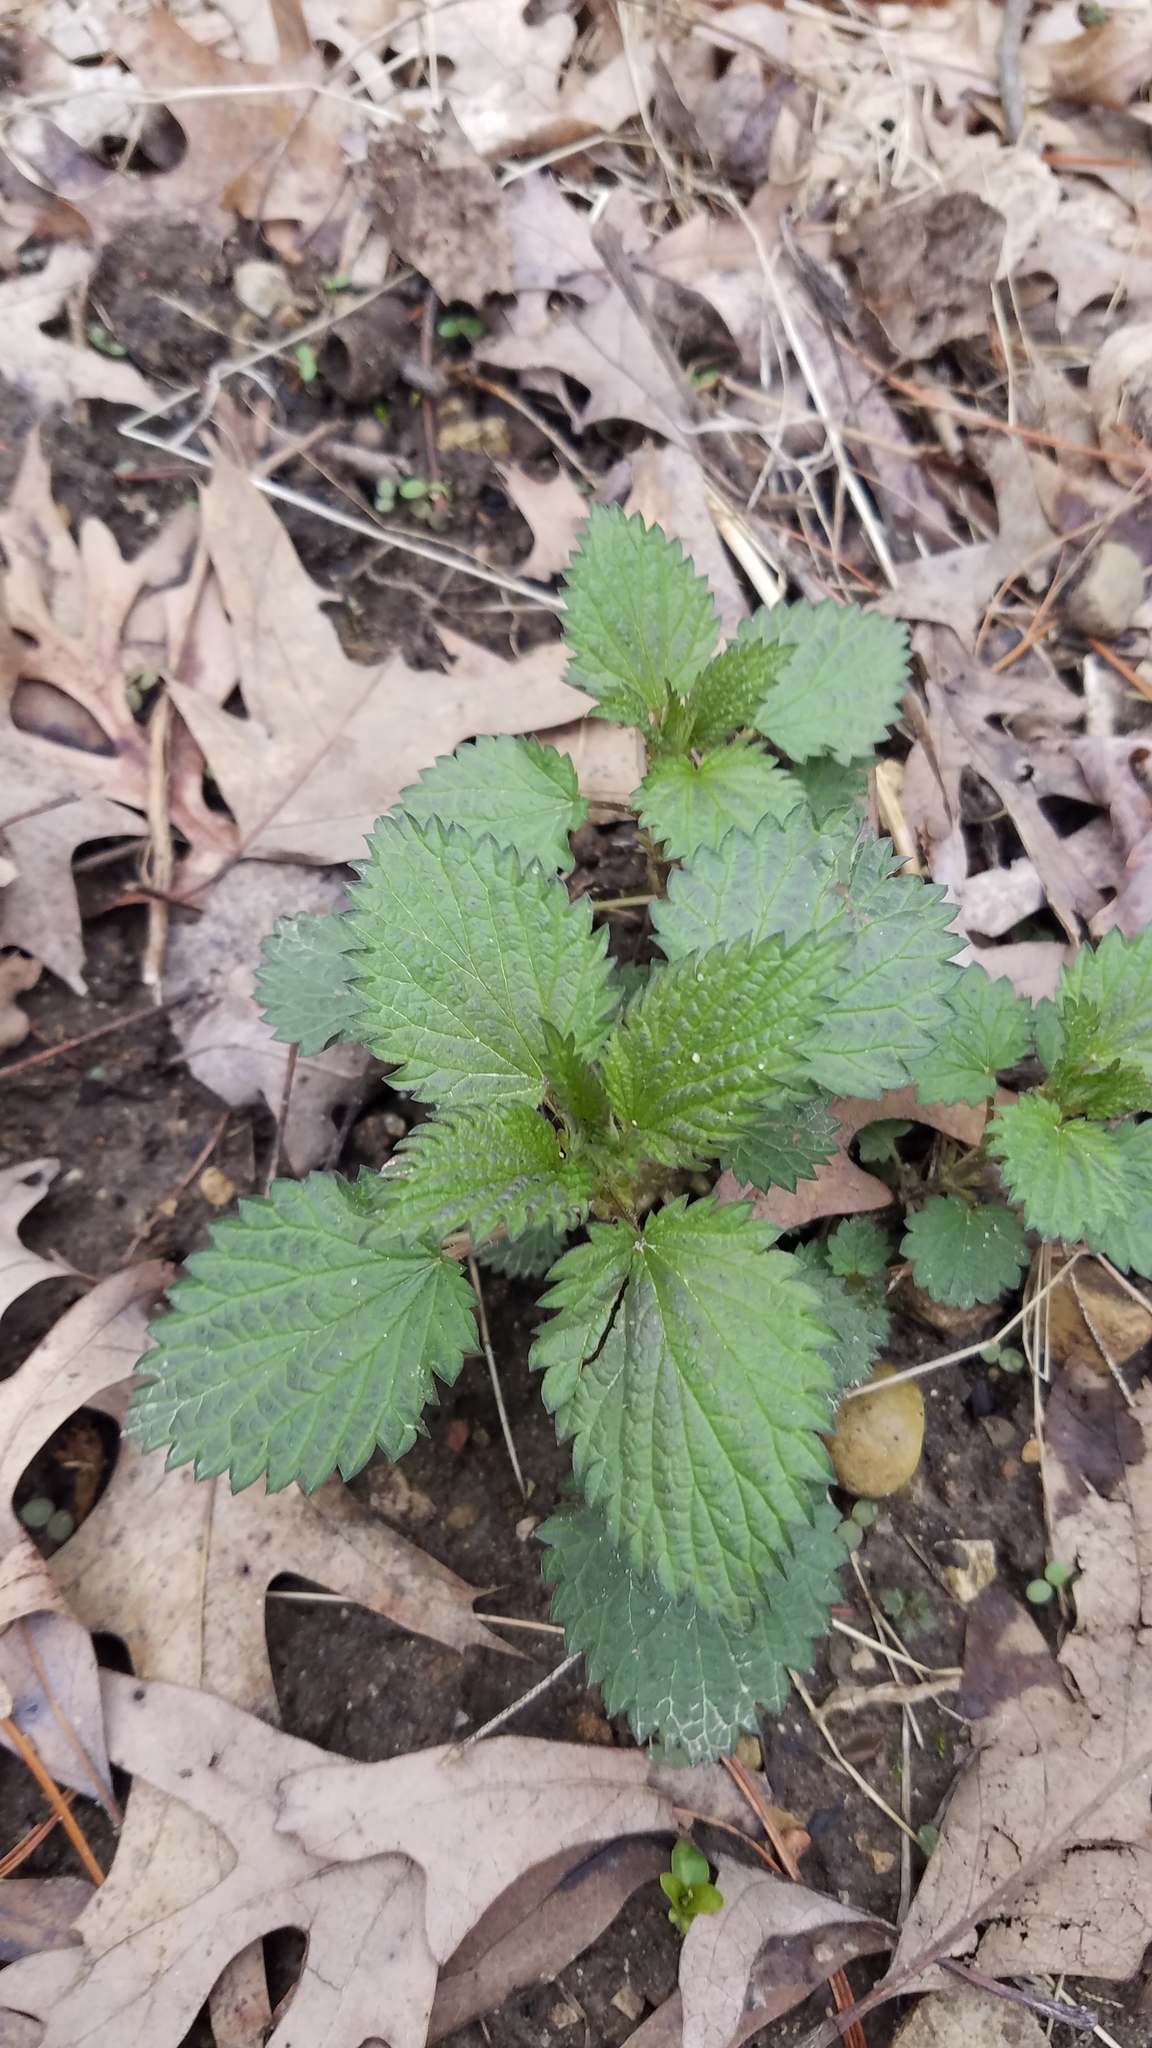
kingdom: Plantae
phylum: Tracheophyta
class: Magnoliopsida
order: Rosales
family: Urticaceae
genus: Urtica
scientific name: Urtica gracilis
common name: Slender stinging nettle
